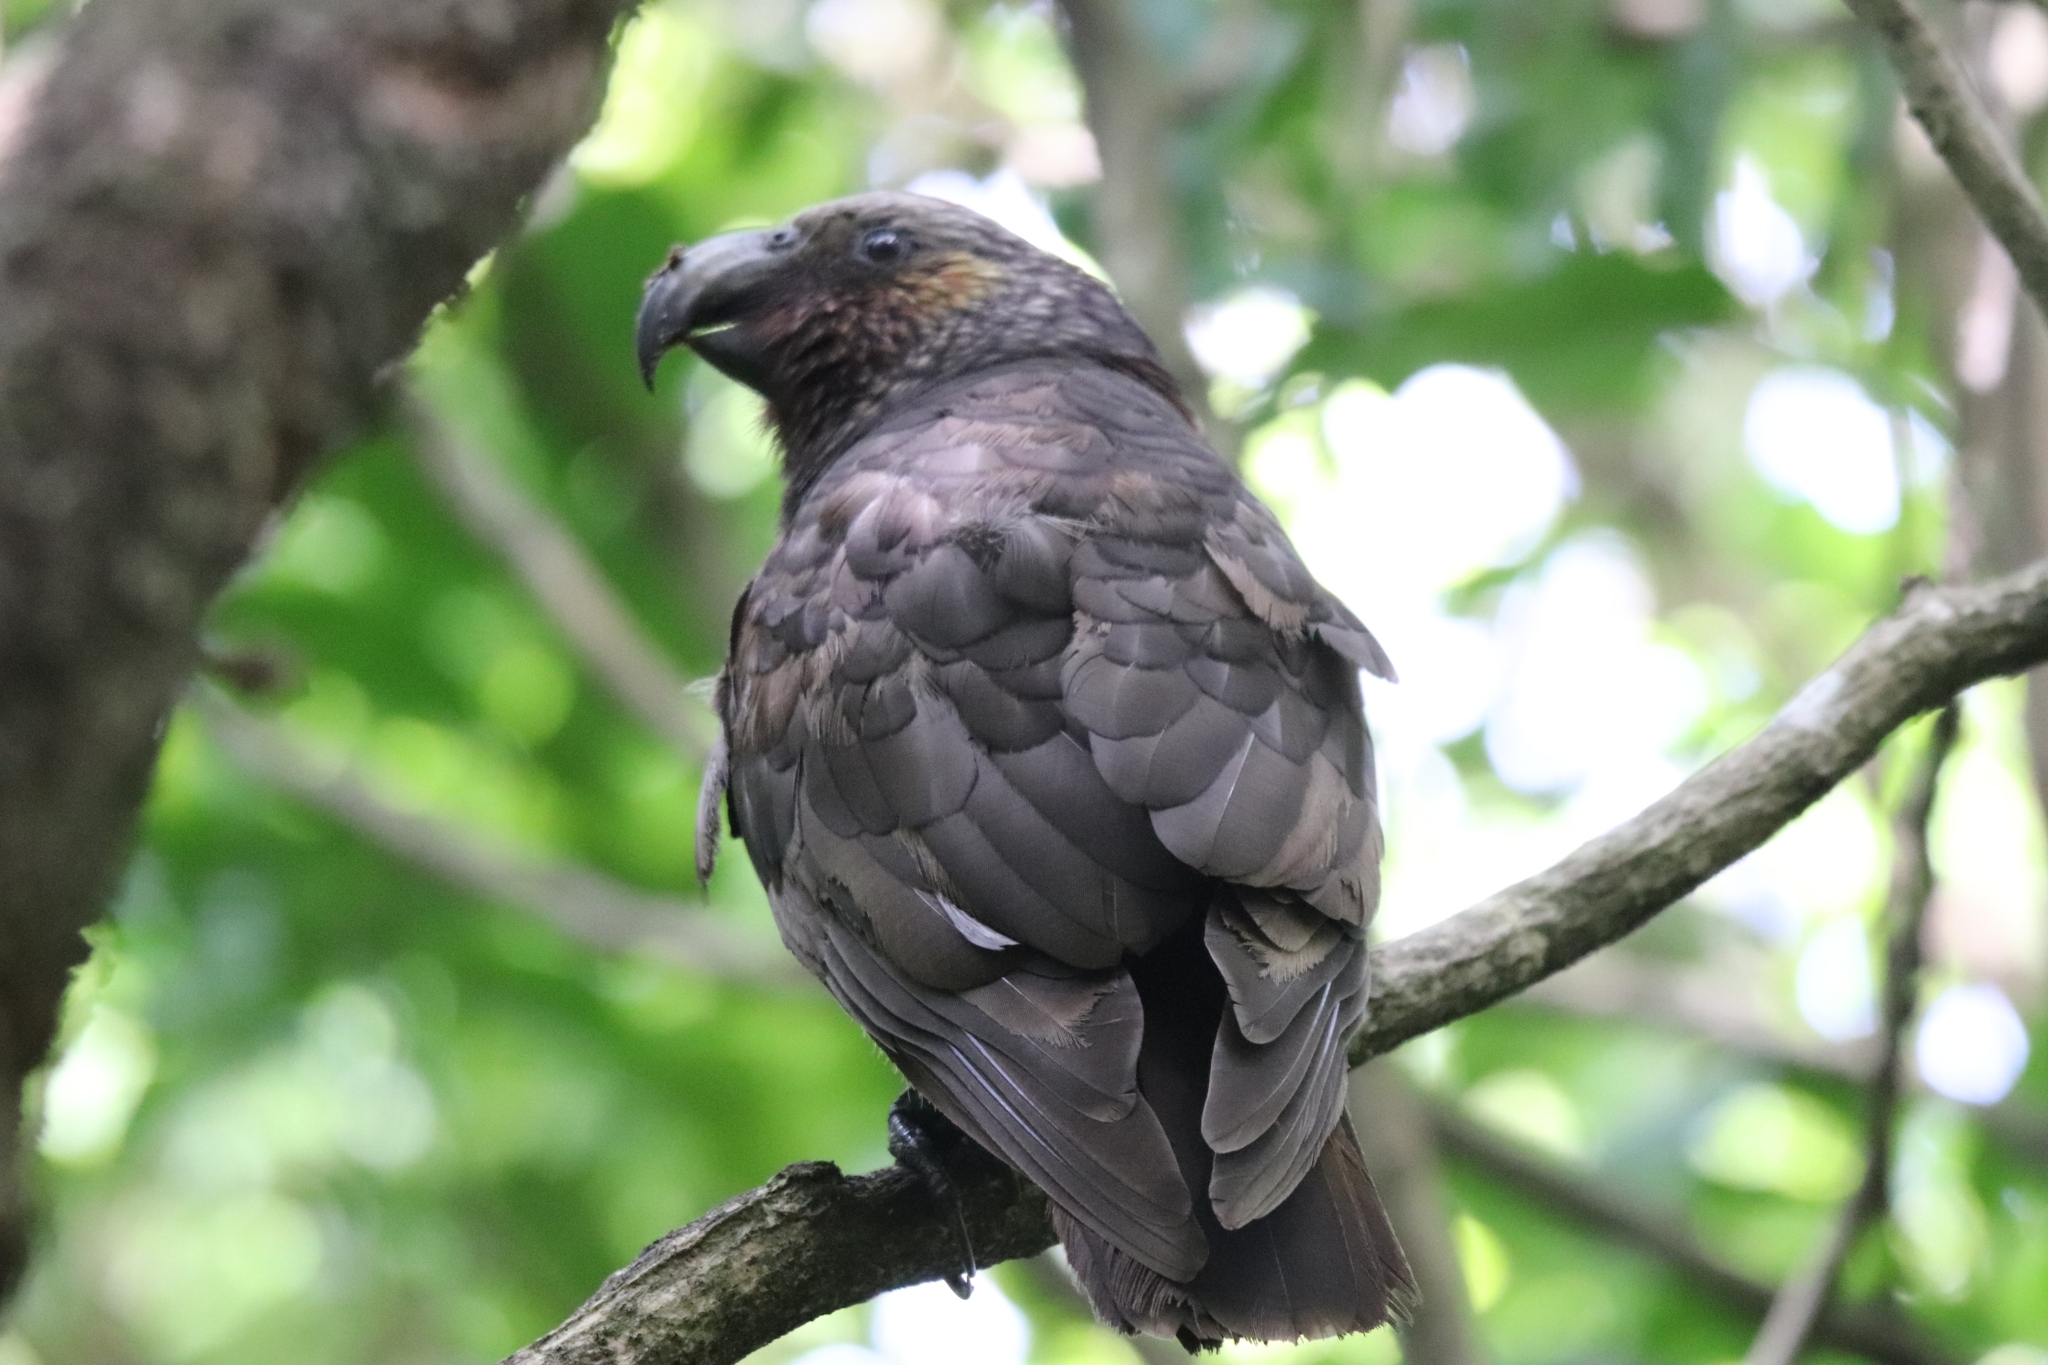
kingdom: Animalia
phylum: Chordata
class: Aves
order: Psittaciformes
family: Psittacidae
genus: Nestor
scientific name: Nestor meridionalis
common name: New zealand kaka
